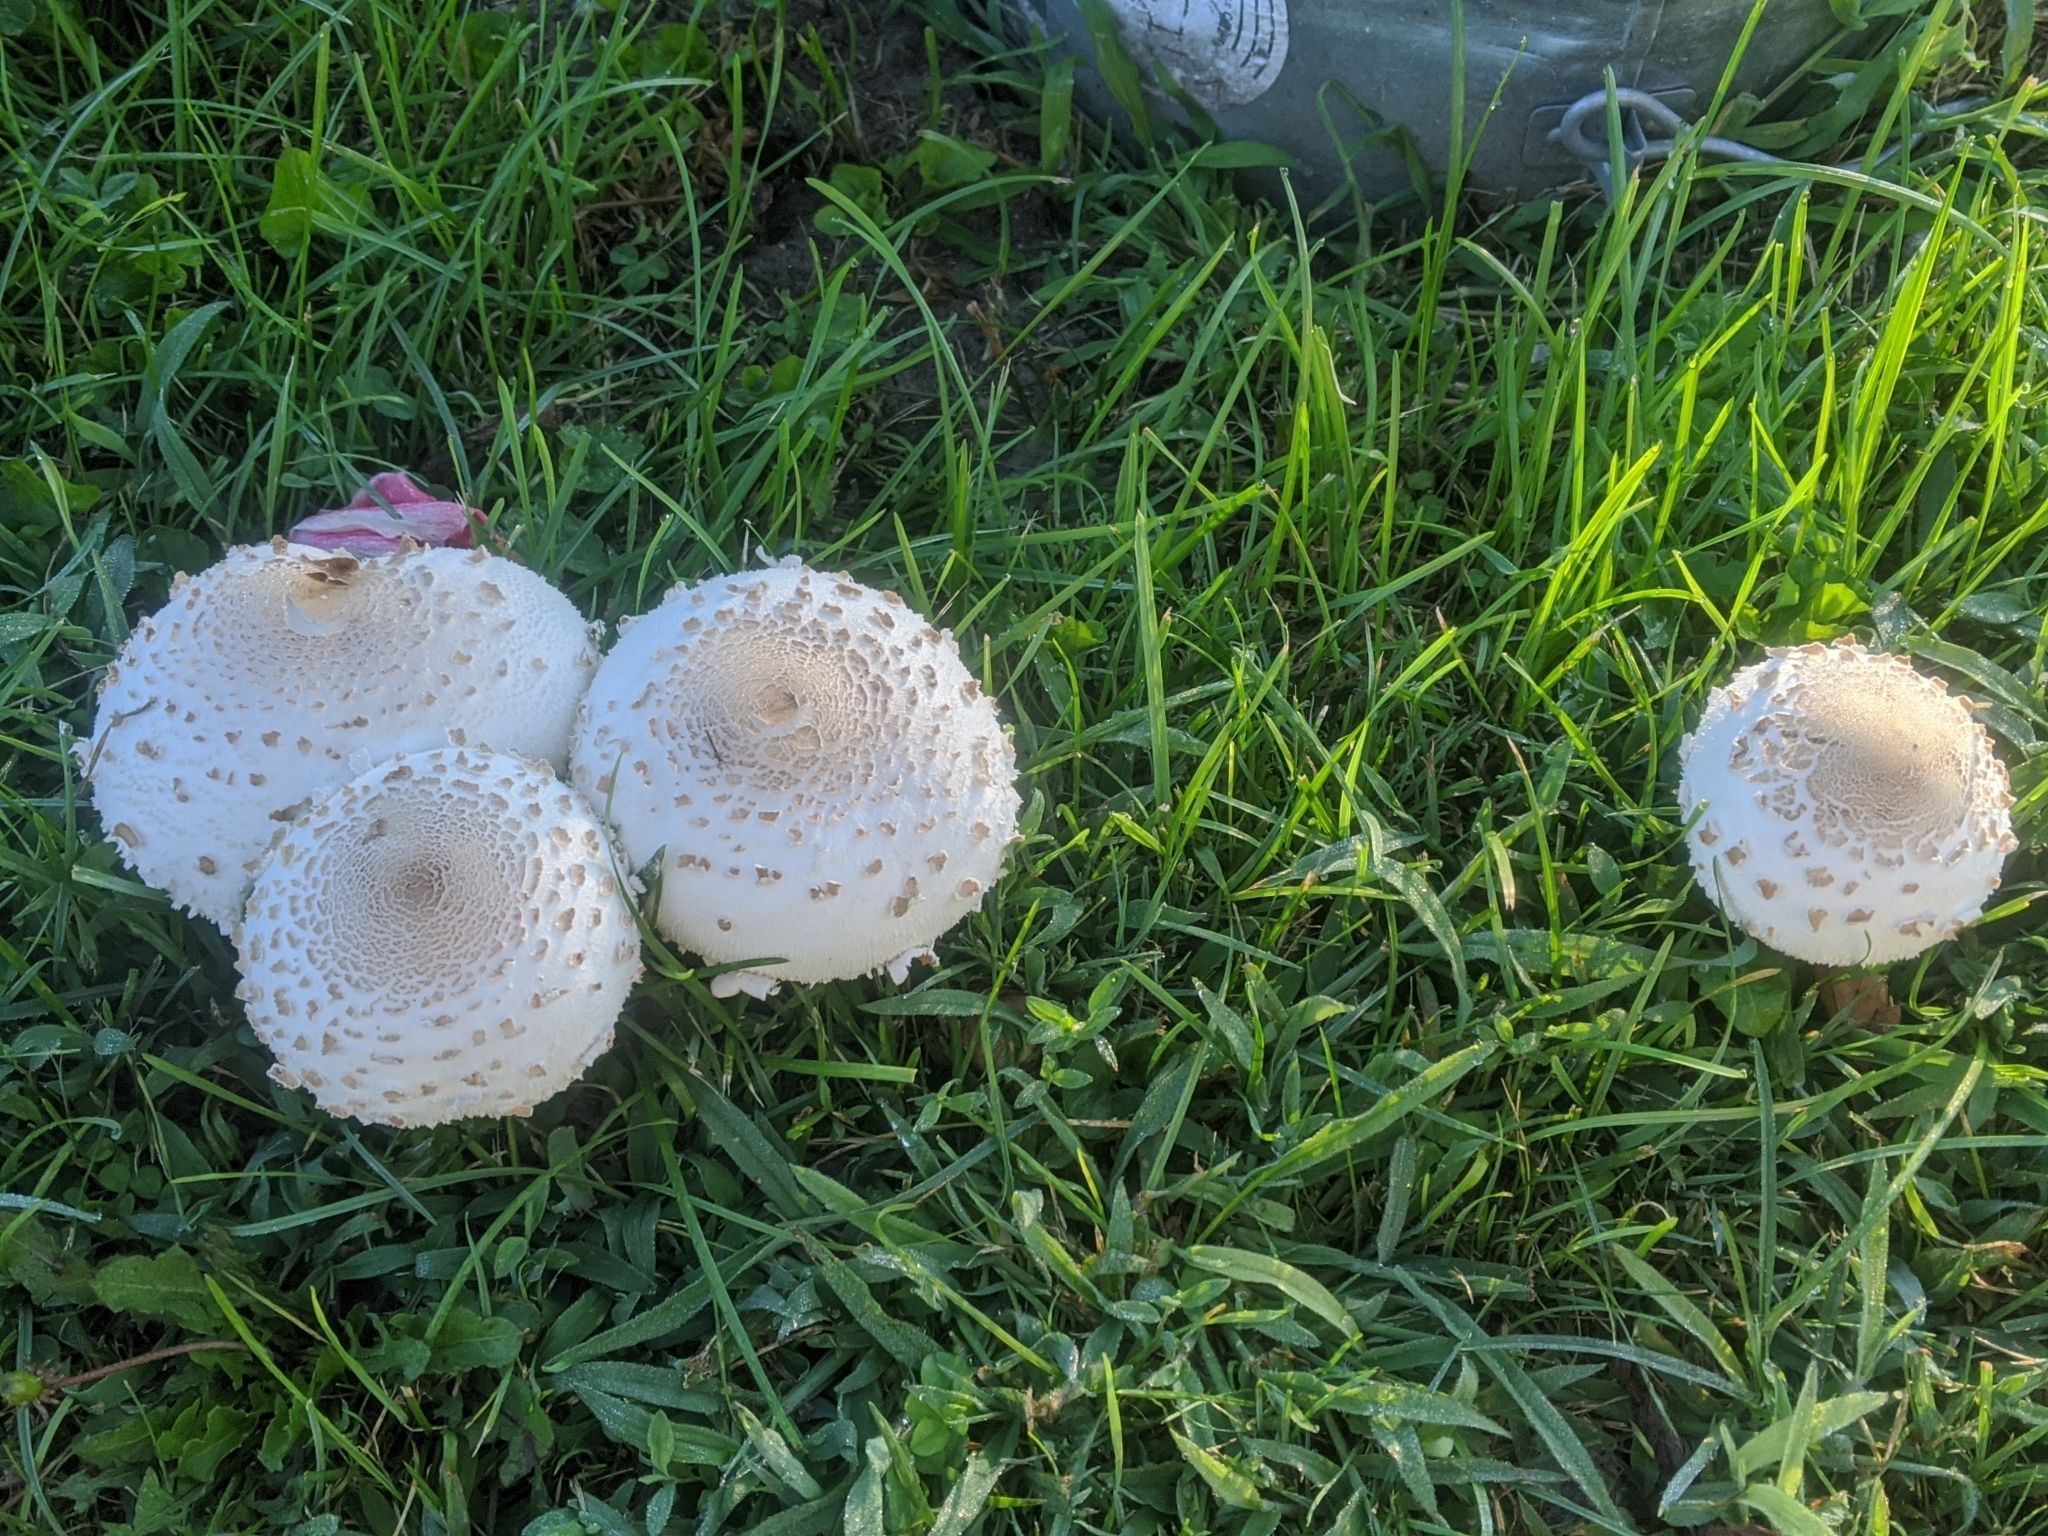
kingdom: Fungi
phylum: Basidiomycota
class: Agaricomycetes
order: Agaricales
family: Agaricaceae
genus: Chlorophyllum
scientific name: Chlorophyllum molybdites
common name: False parasol
